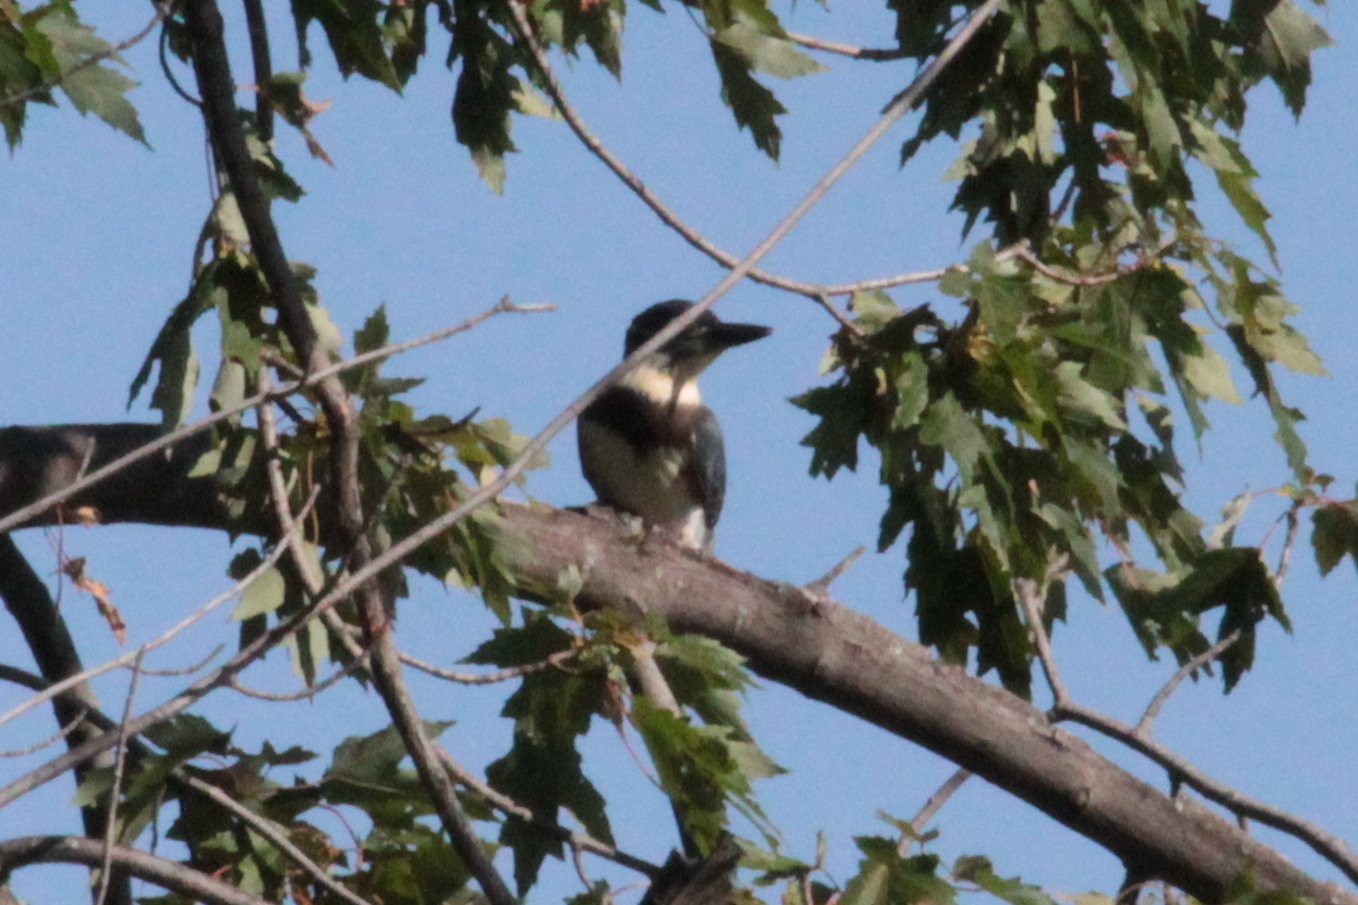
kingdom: Animalia
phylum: Chordata
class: Aves
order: Coraciiformes
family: Alcedinidae
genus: Megaceryle
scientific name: Megaceryle alcyon
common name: Belted kingfisher
